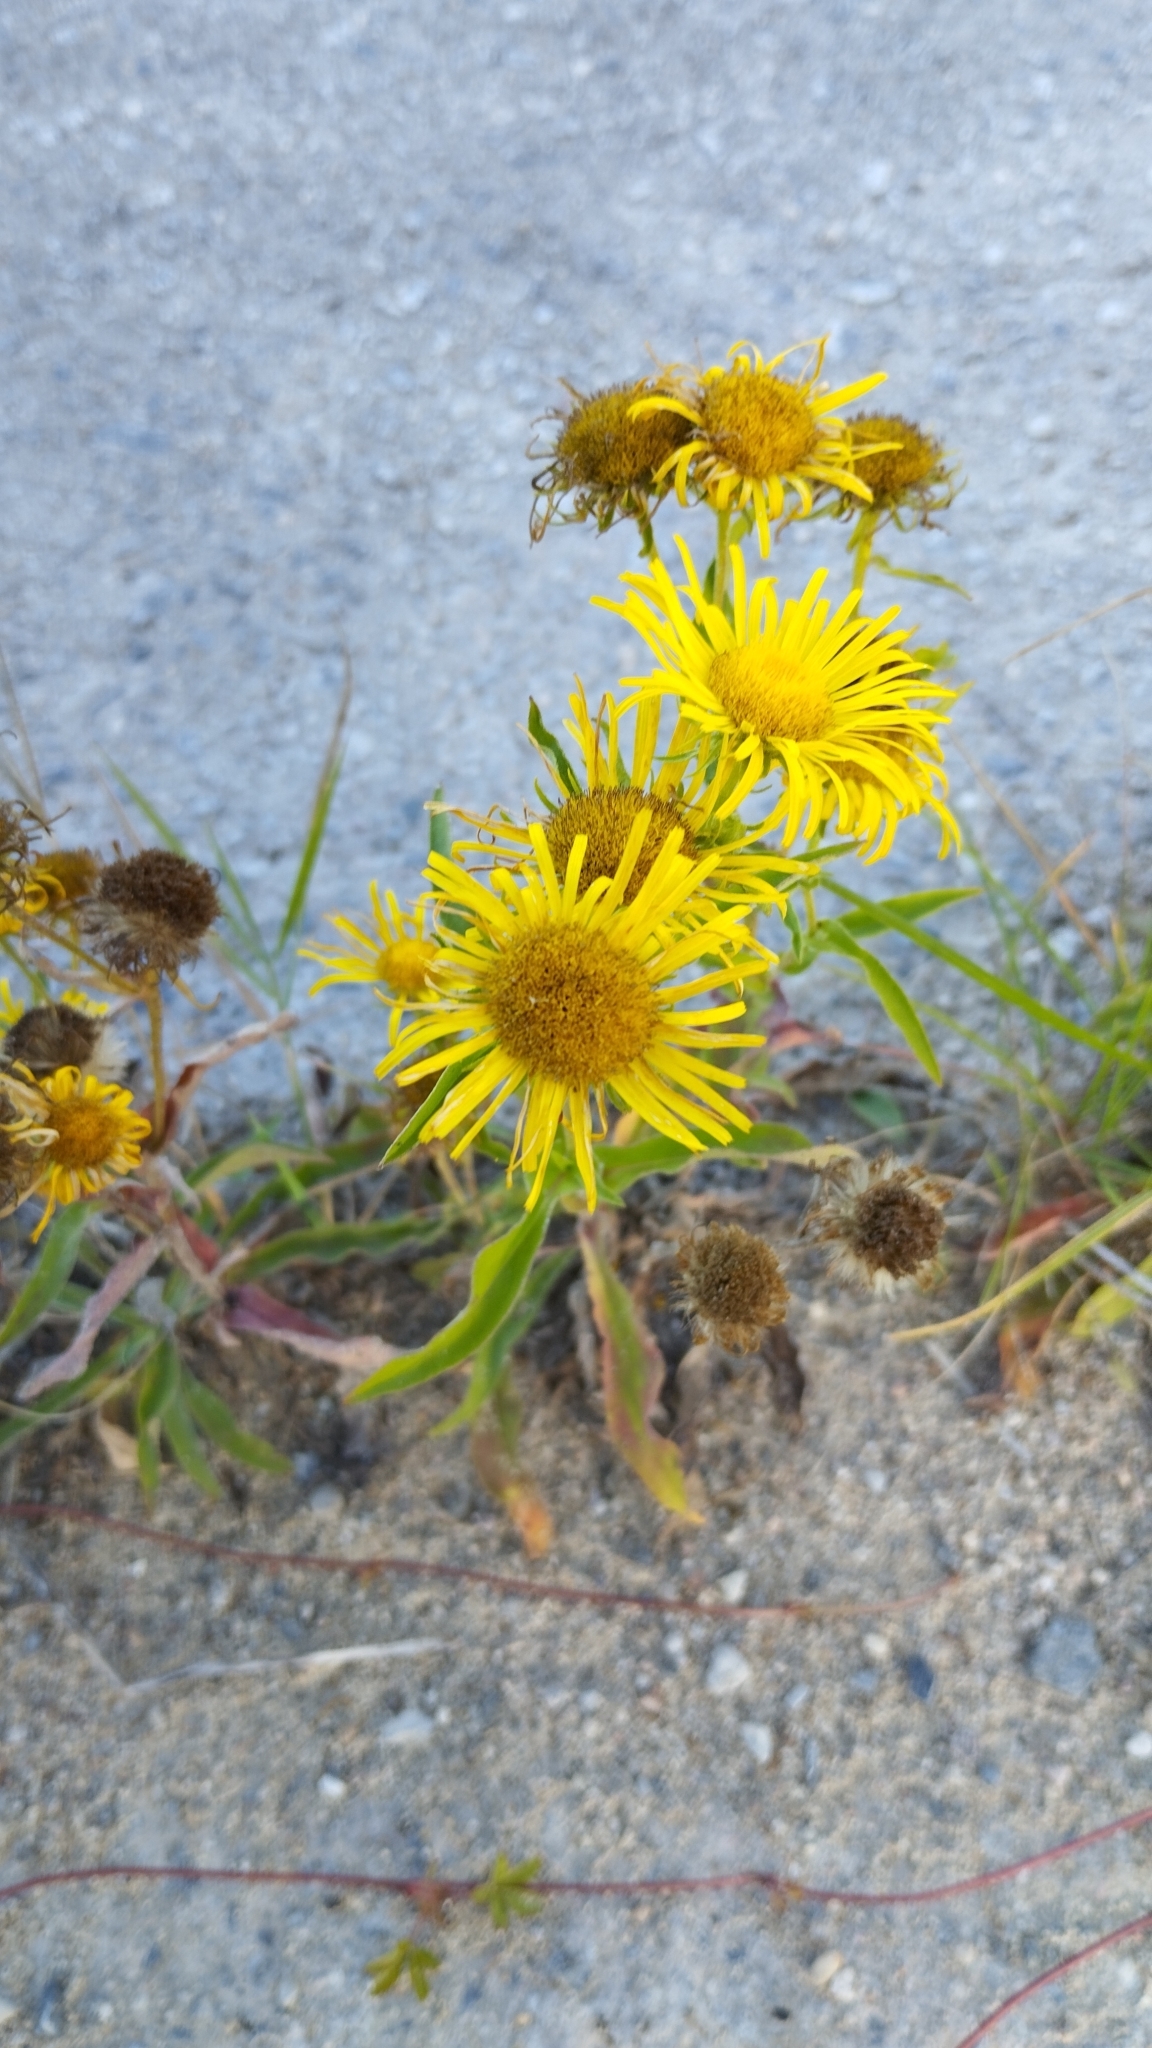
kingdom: Plantae
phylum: Tracheophyta
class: Magnoliopsida
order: Asterales
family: Asteraceae
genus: Pentanema
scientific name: Pentanema britannicum
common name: British elecampane
